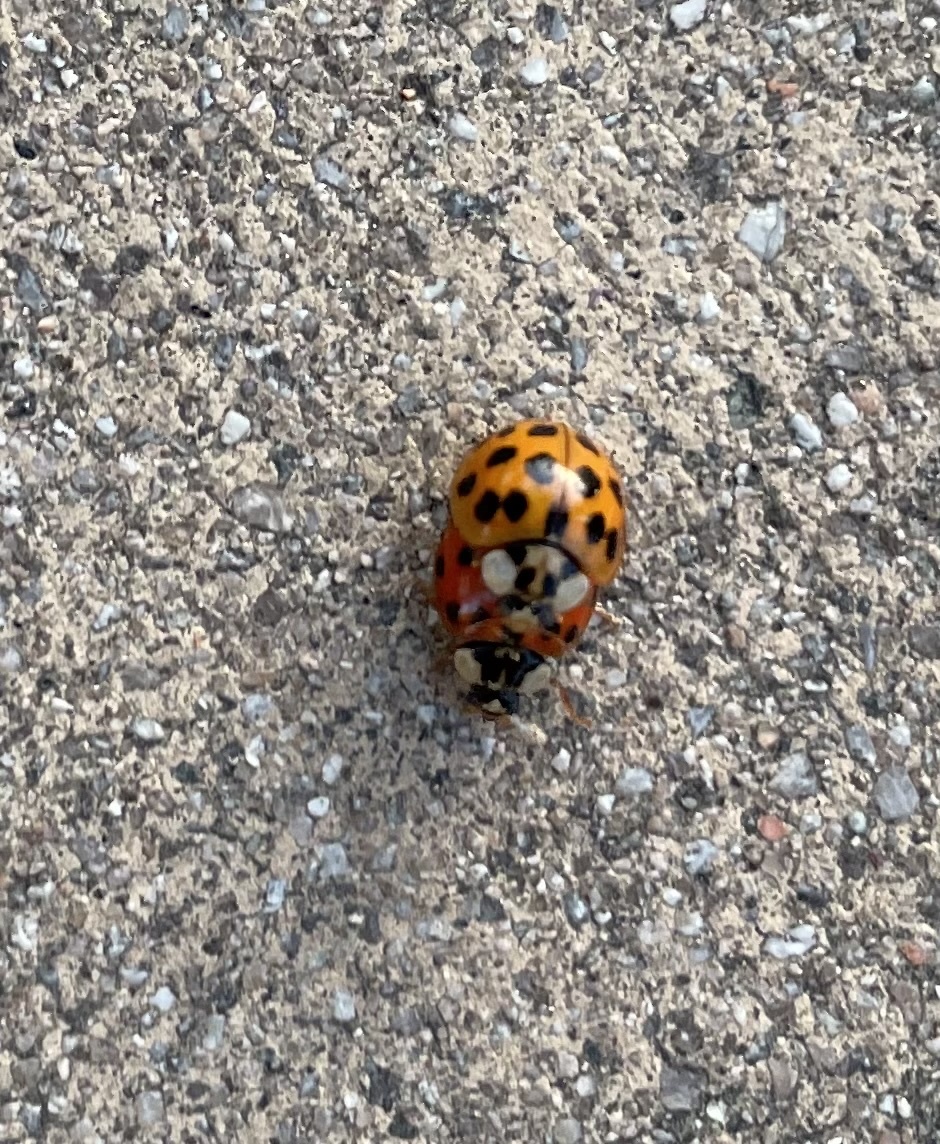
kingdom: Animalia
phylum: Arthropoda
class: Insecta
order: Coleoptera
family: Coccinellidae
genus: Harmonia
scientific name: Harmonia axyridis
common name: Harlequin ladybird
